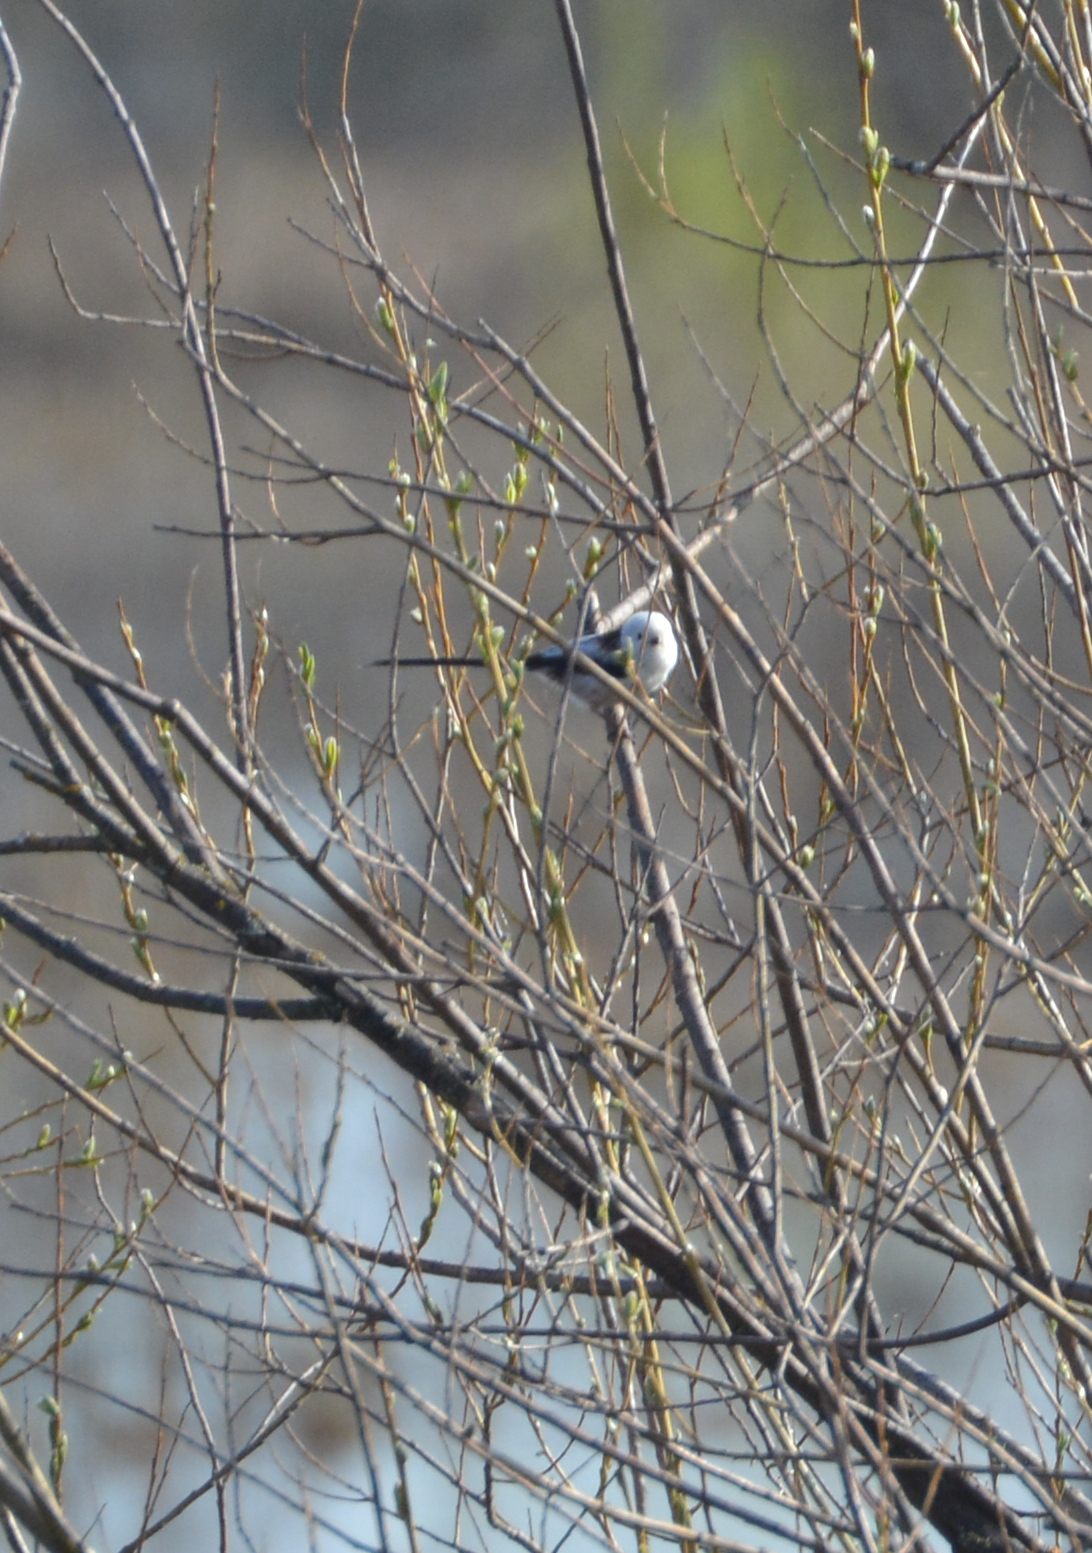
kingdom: Animalia
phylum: Chordata
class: Aves
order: Passeriformes
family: Aegithalidae
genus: Aegithalos
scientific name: Aegithalos caudatus
